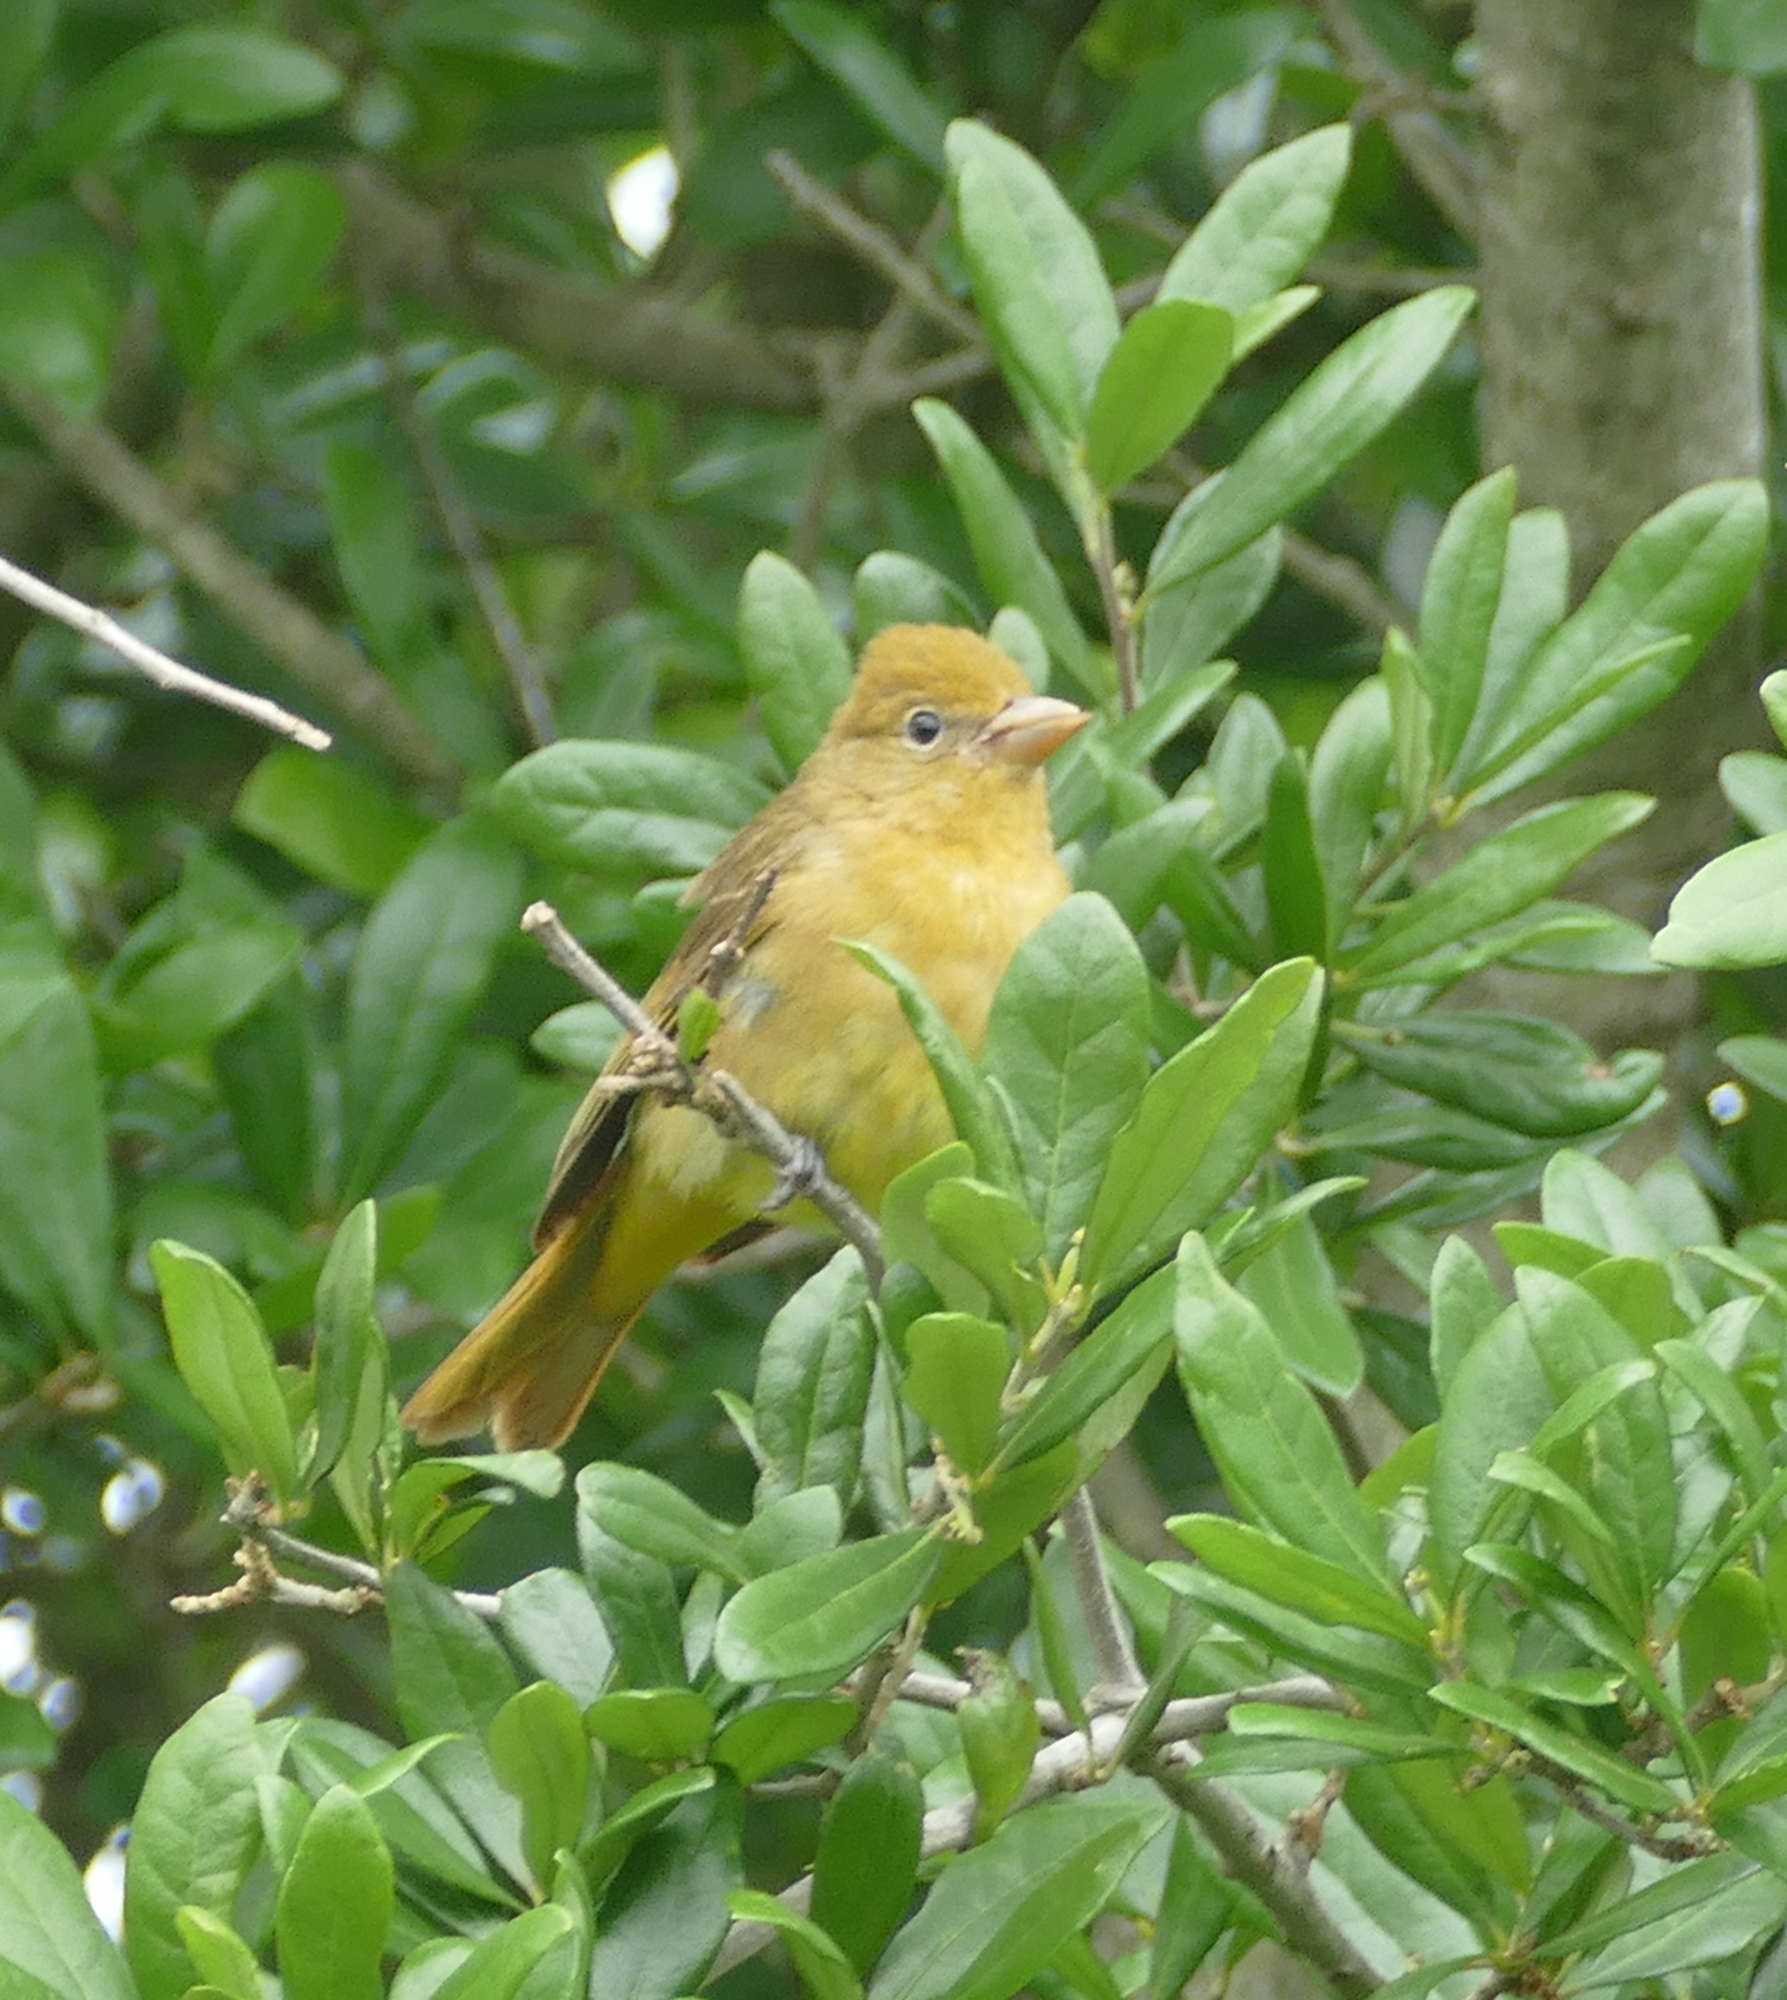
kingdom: Animalia
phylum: Chordata
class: Aves
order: Passeriformes
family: Cardinalidae
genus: Piranga
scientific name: Piranga rubra
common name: Summer tanager
